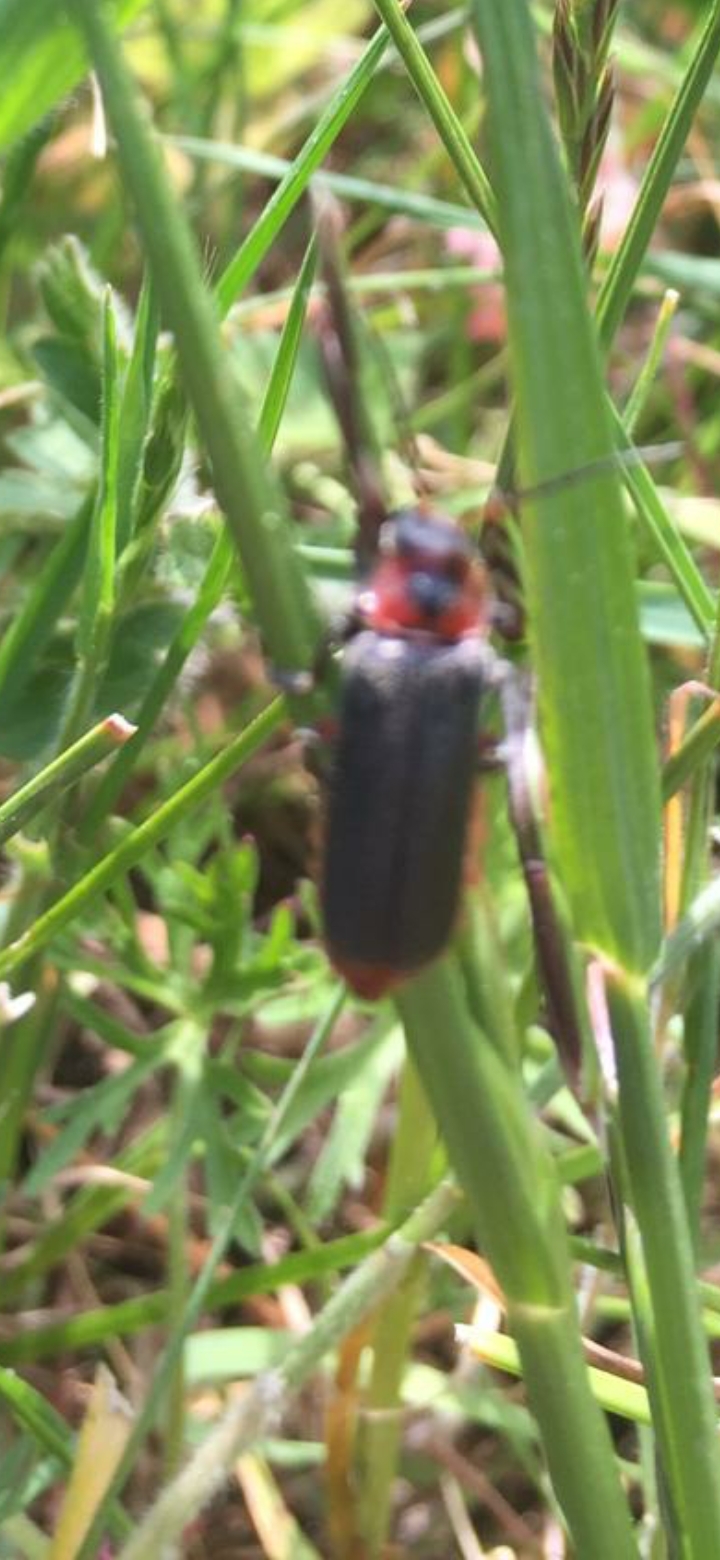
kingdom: Animalia
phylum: Arthropoda
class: Insecta
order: Coleoptera
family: Cantharidae
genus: Cantharis
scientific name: Cantharis rustica
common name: Soldier beetle
